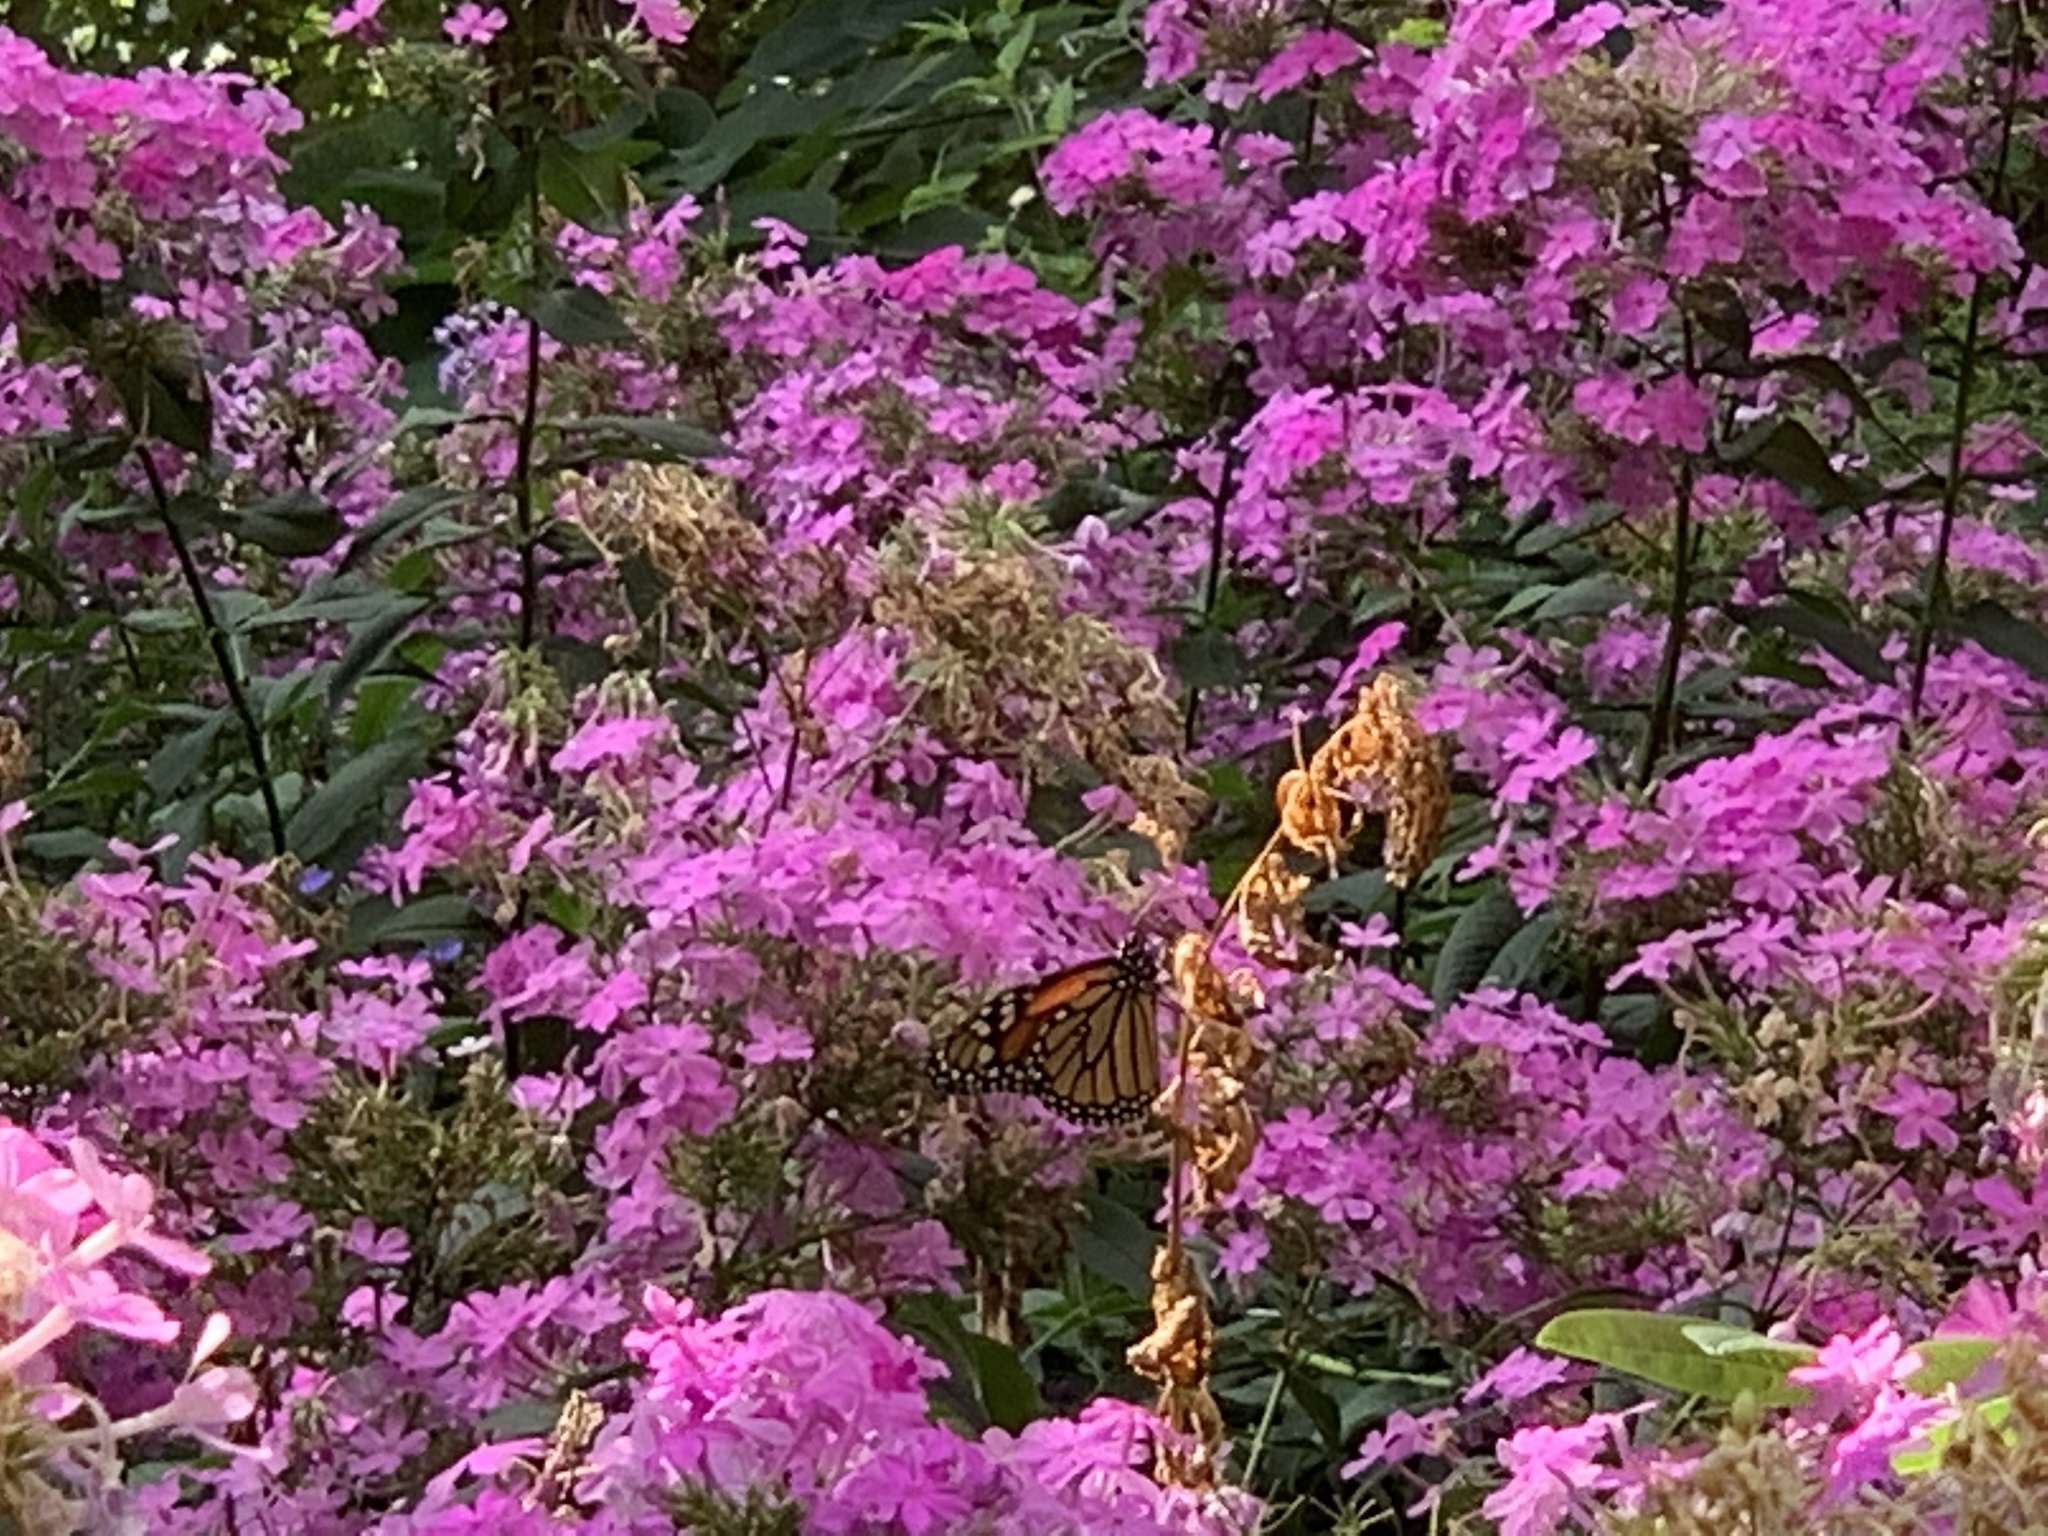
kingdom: Animalia
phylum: Arthropoda
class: Insecta
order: Lepidoptera
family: Nymphalidae
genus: Danaus
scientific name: Danaus plexippus
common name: Monarch
